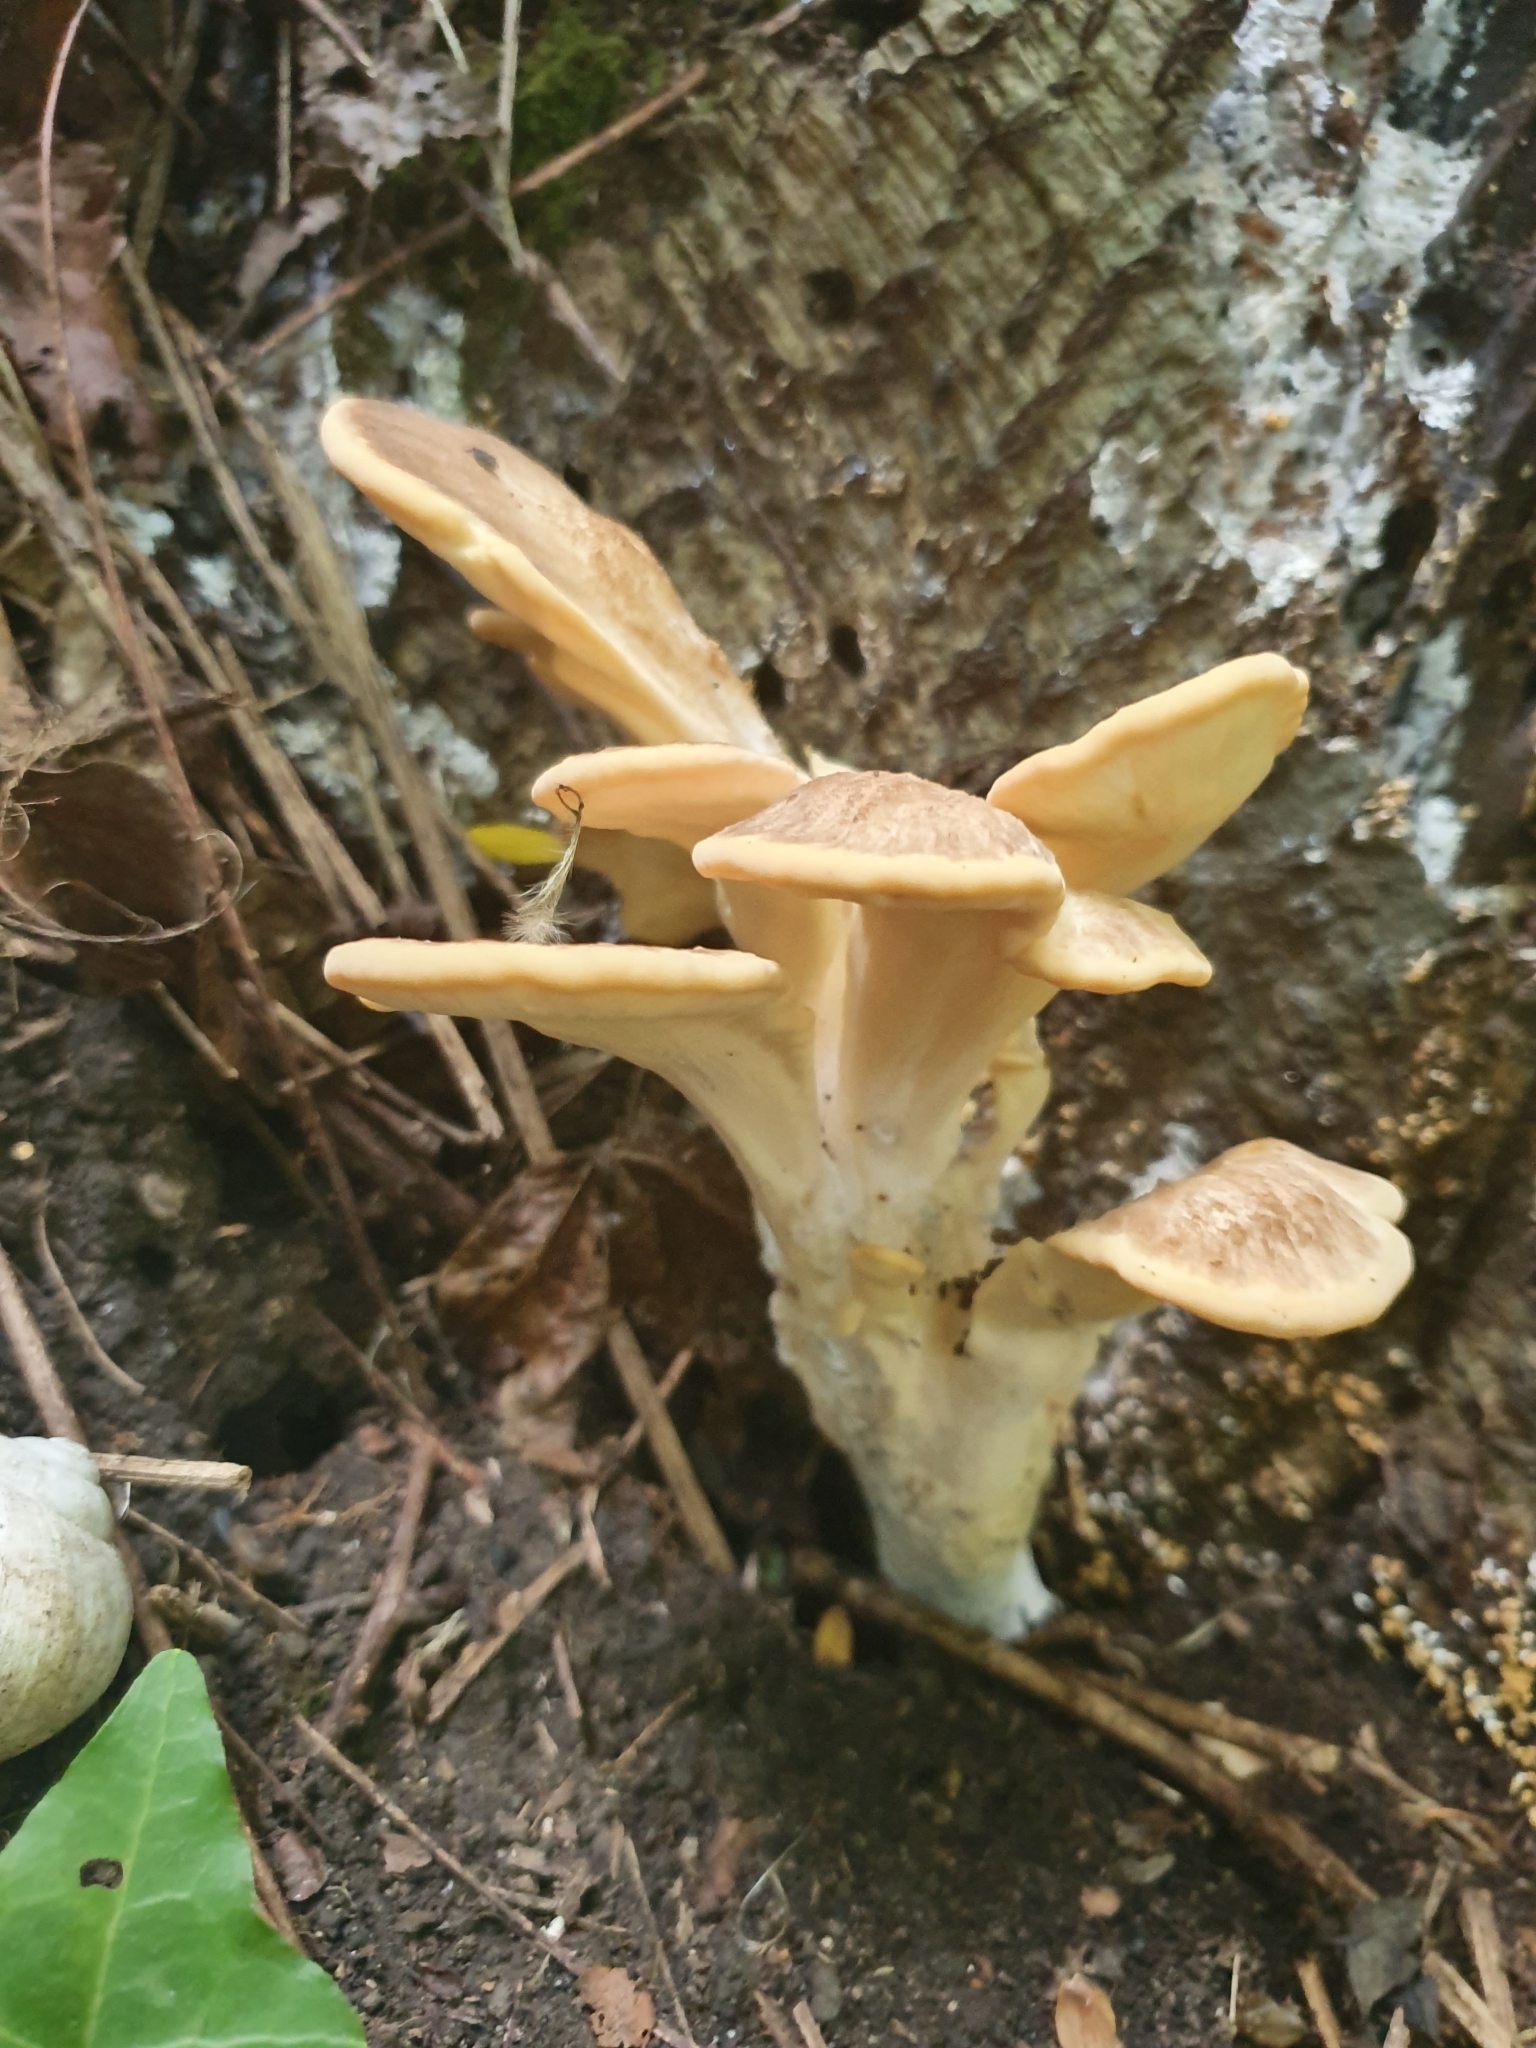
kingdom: Fungi
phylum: Basidiomycota
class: Agaricomycetes
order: Polyporales
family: Meripilaceae
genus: Meripilus
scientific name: Meripilus giganteus
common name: Giant polypore
